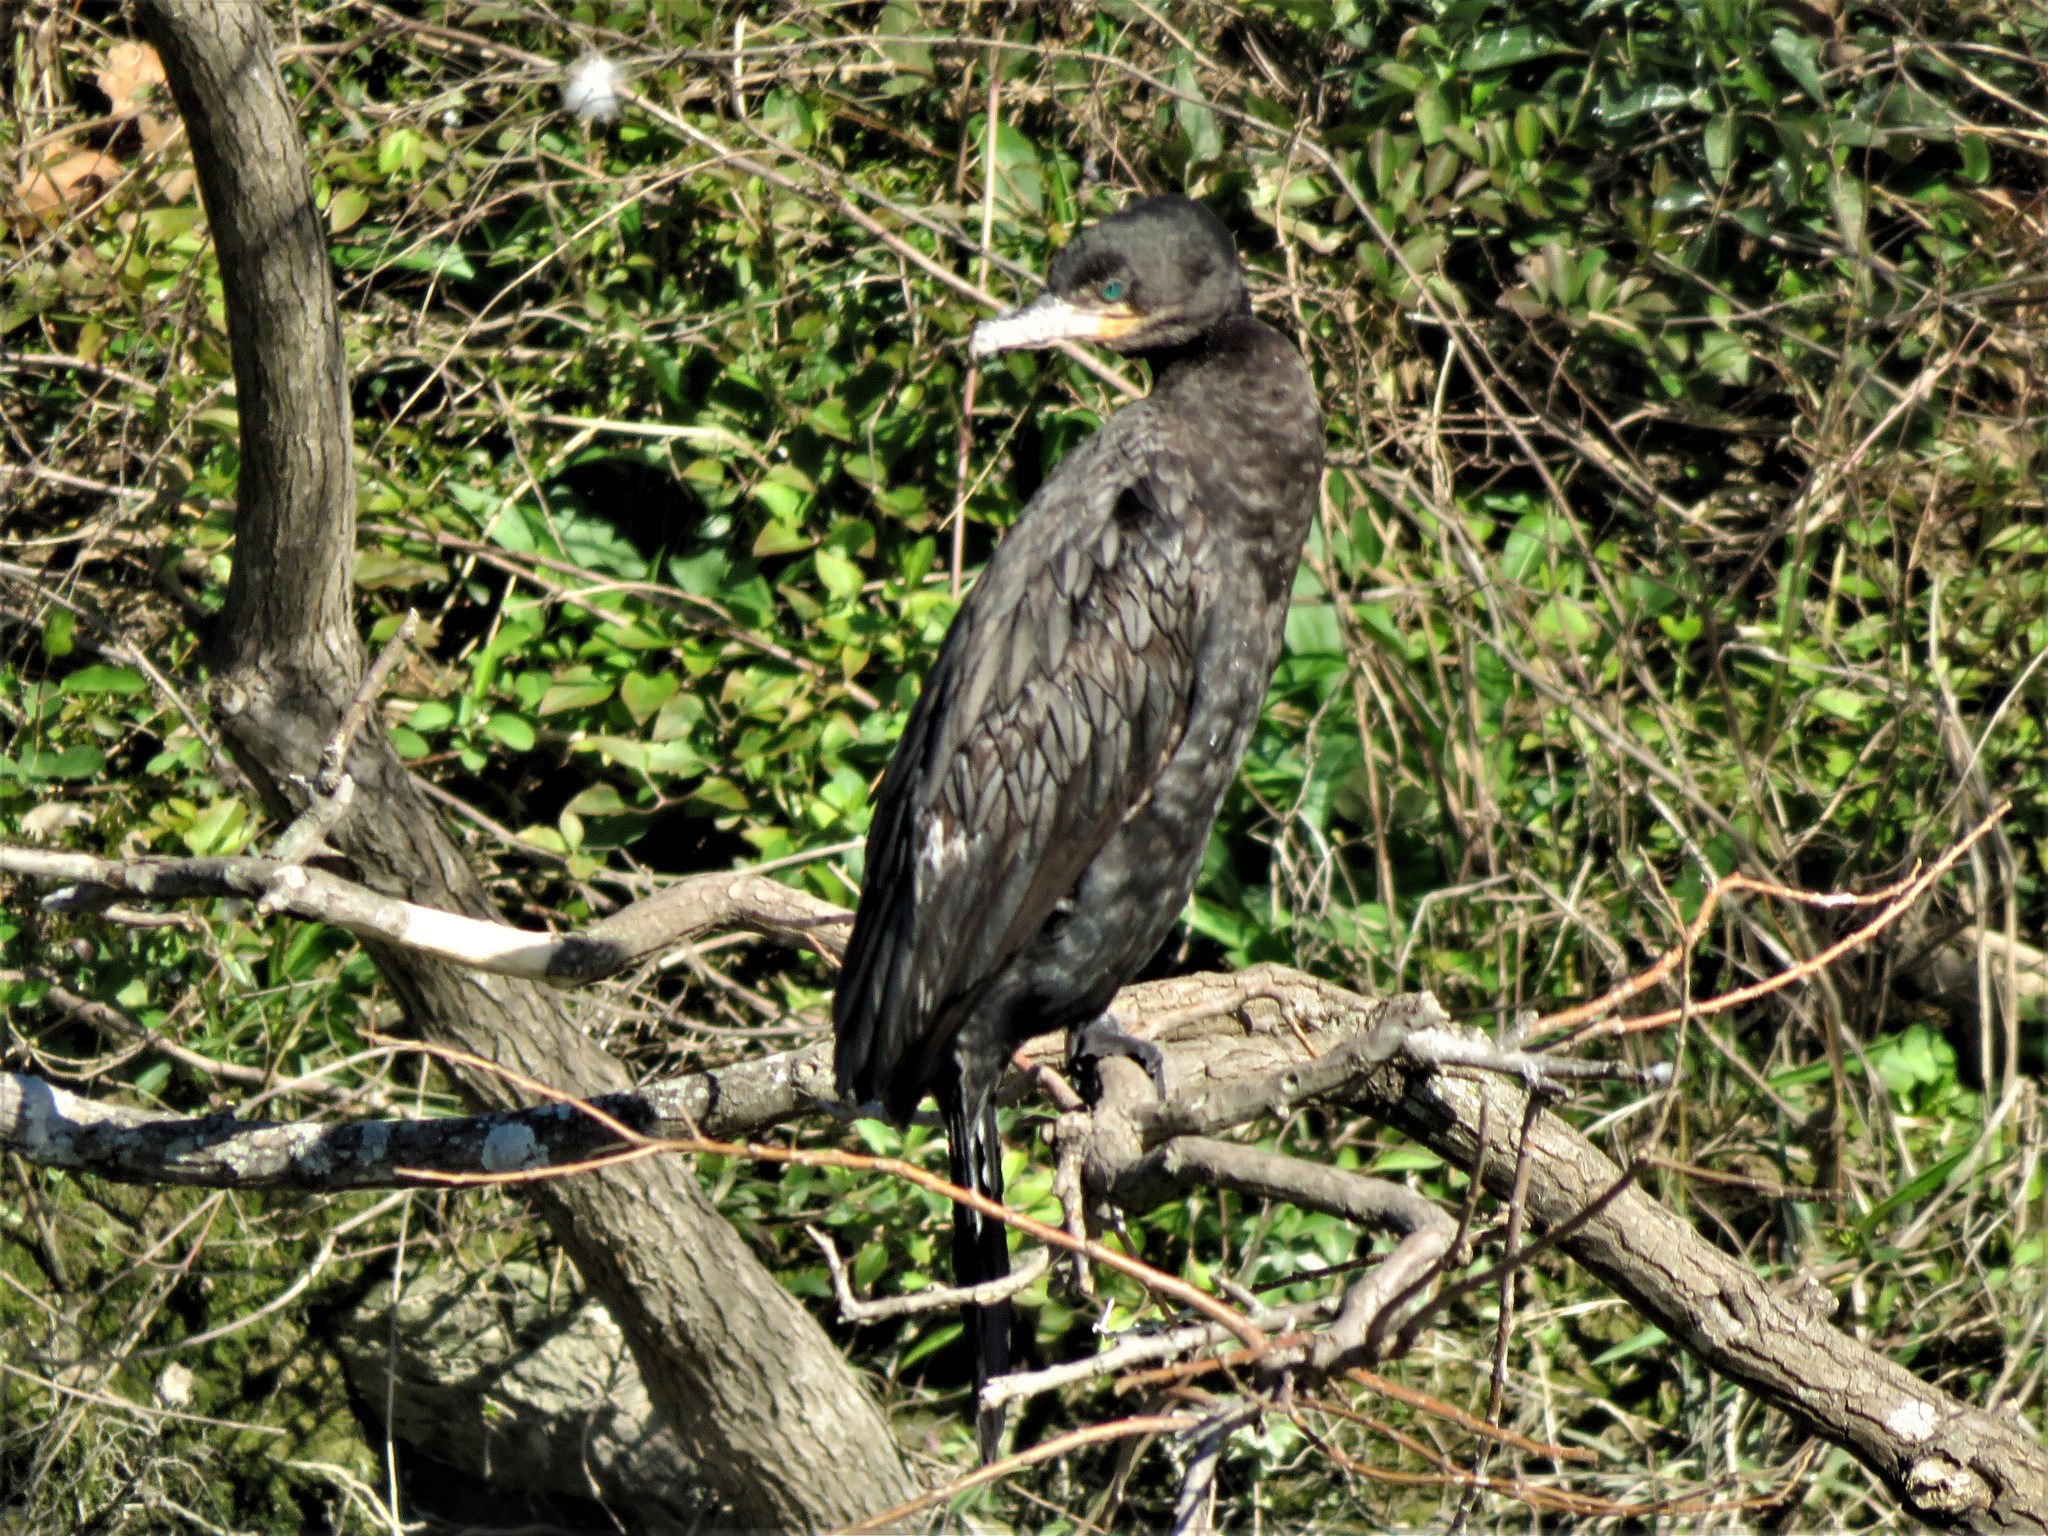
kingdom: Animalia
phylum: Chordata
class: Aves
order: Suliformes
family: Phalacrocoracidae
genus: Phalacrocorax
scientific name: Phalacrocorax brasilianus
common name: Neotropic cormorant
